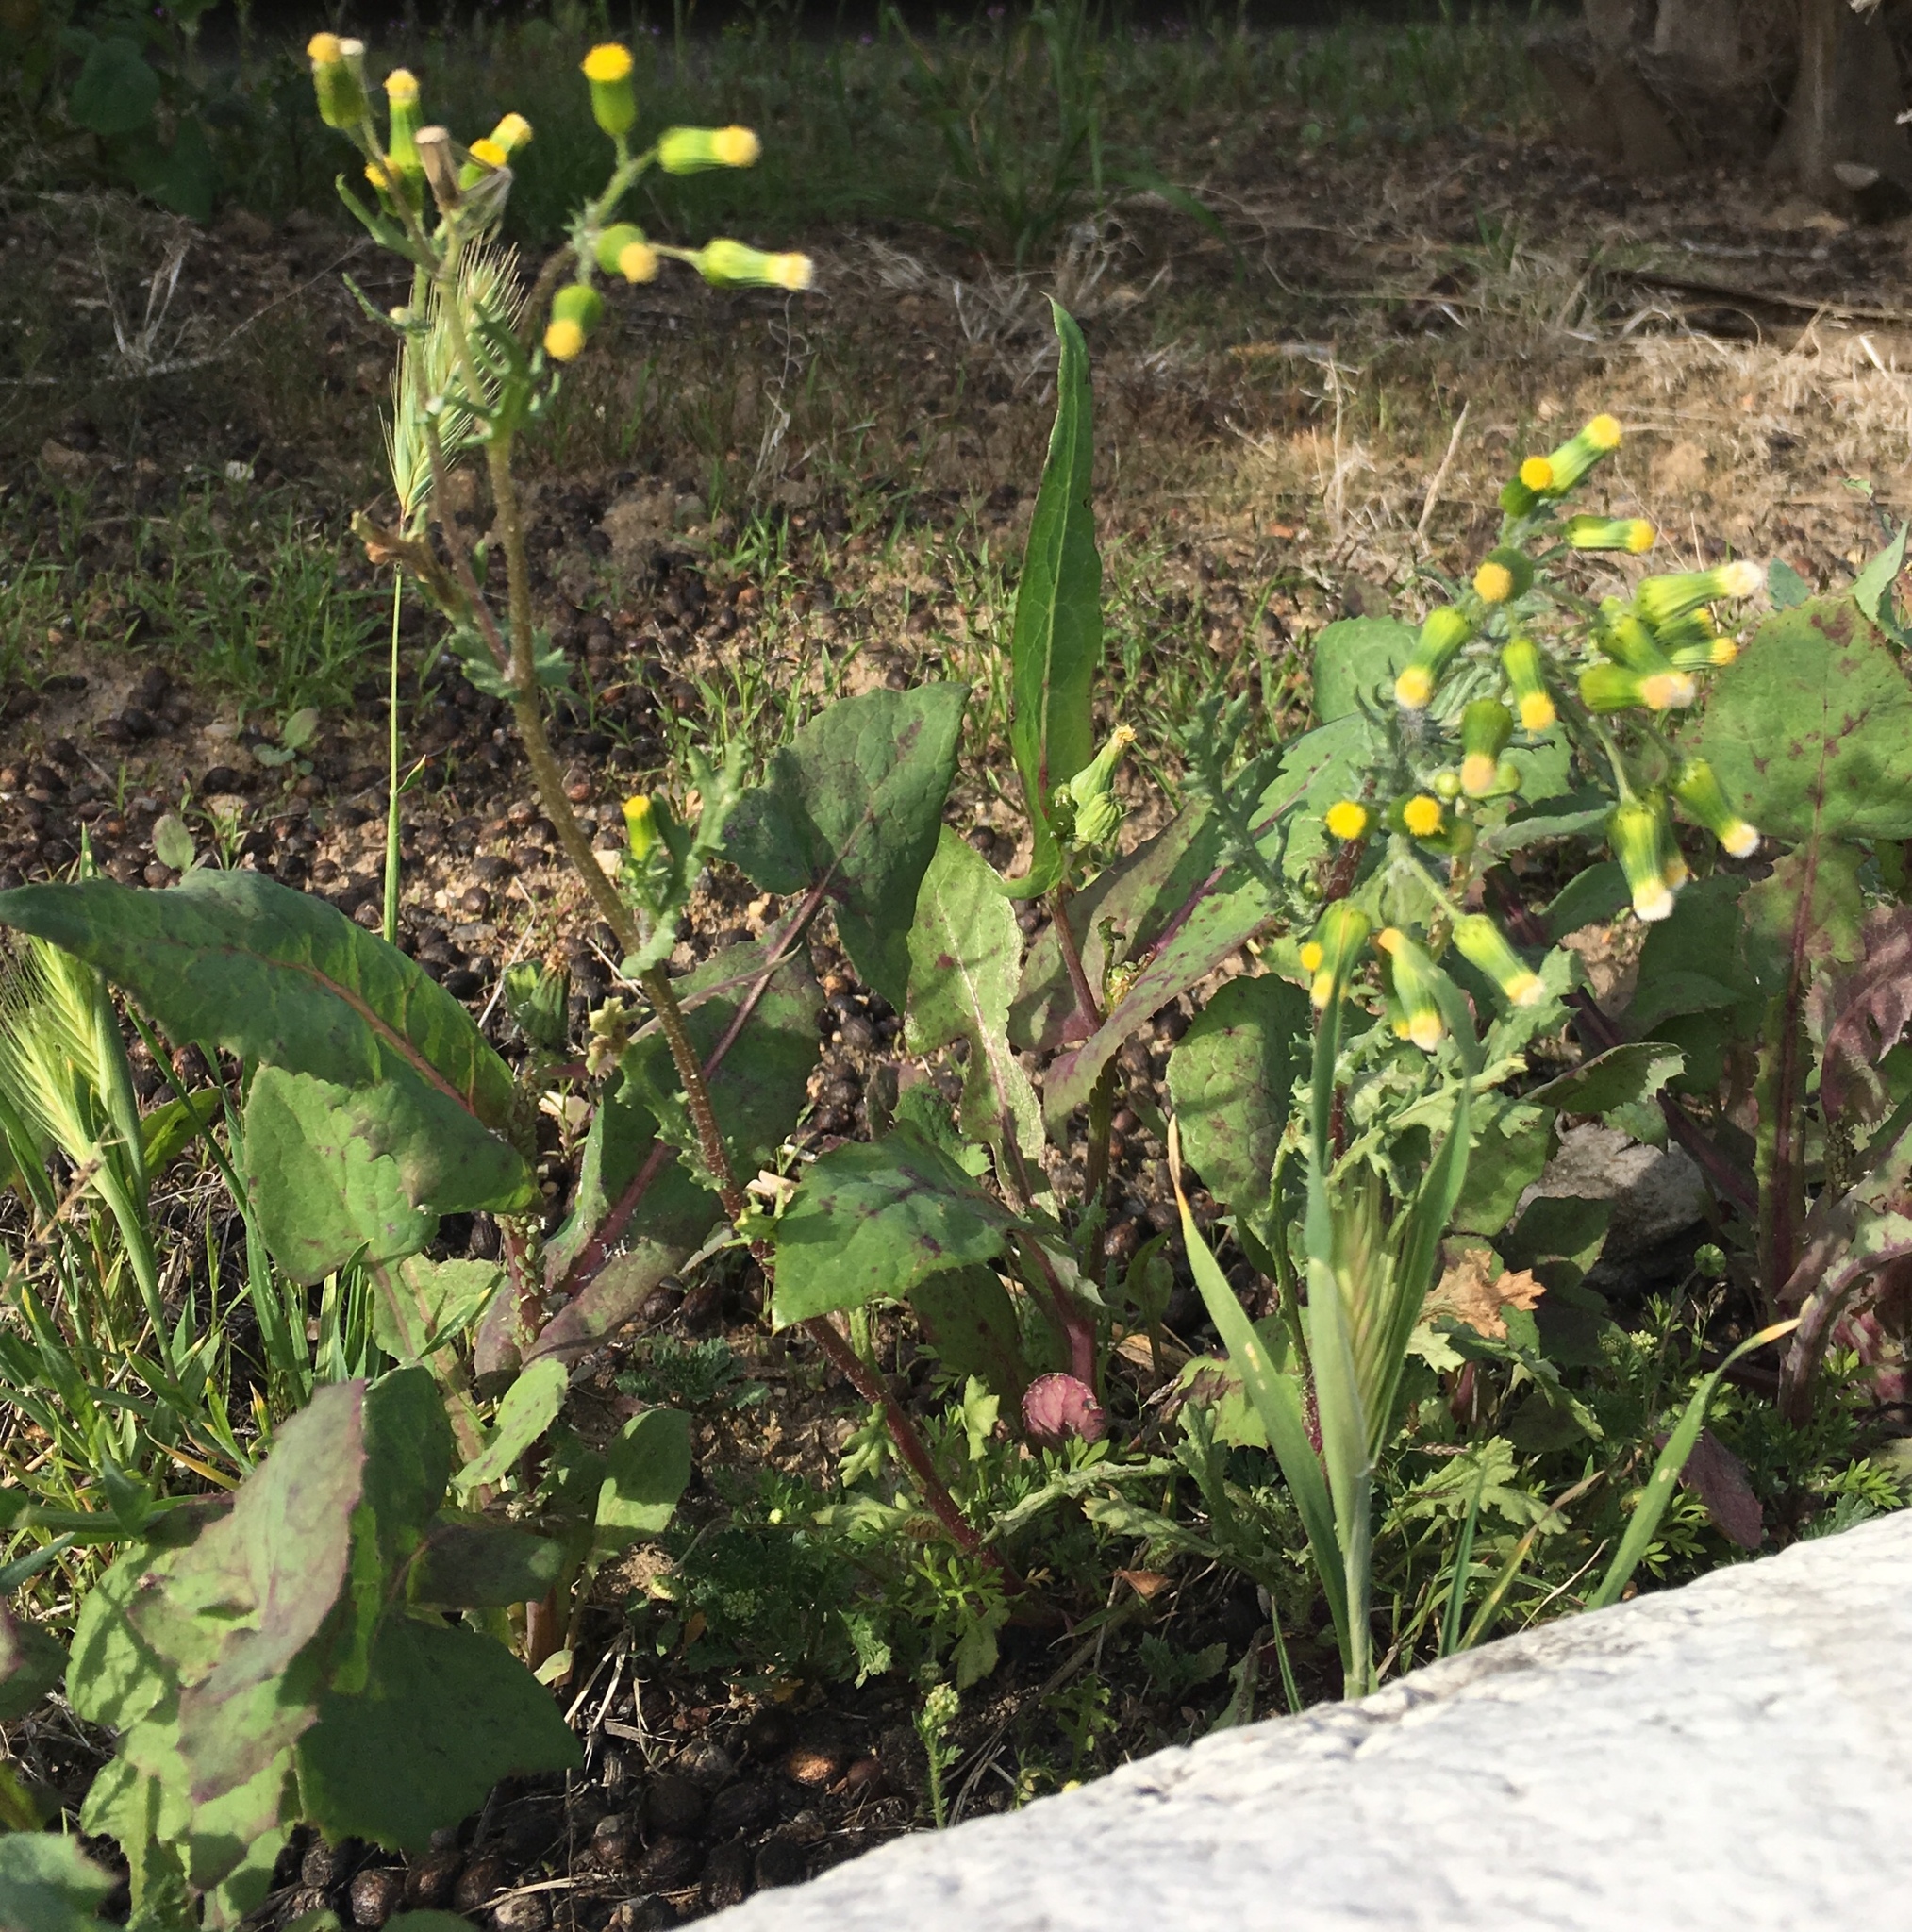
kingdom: Plantae
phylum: Tracheophyta
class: Magnoliopsida
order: Asterales
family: Asteraceae
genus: Senecio
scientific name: Senecio vulgaris
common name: Old-man-in-the-spring
